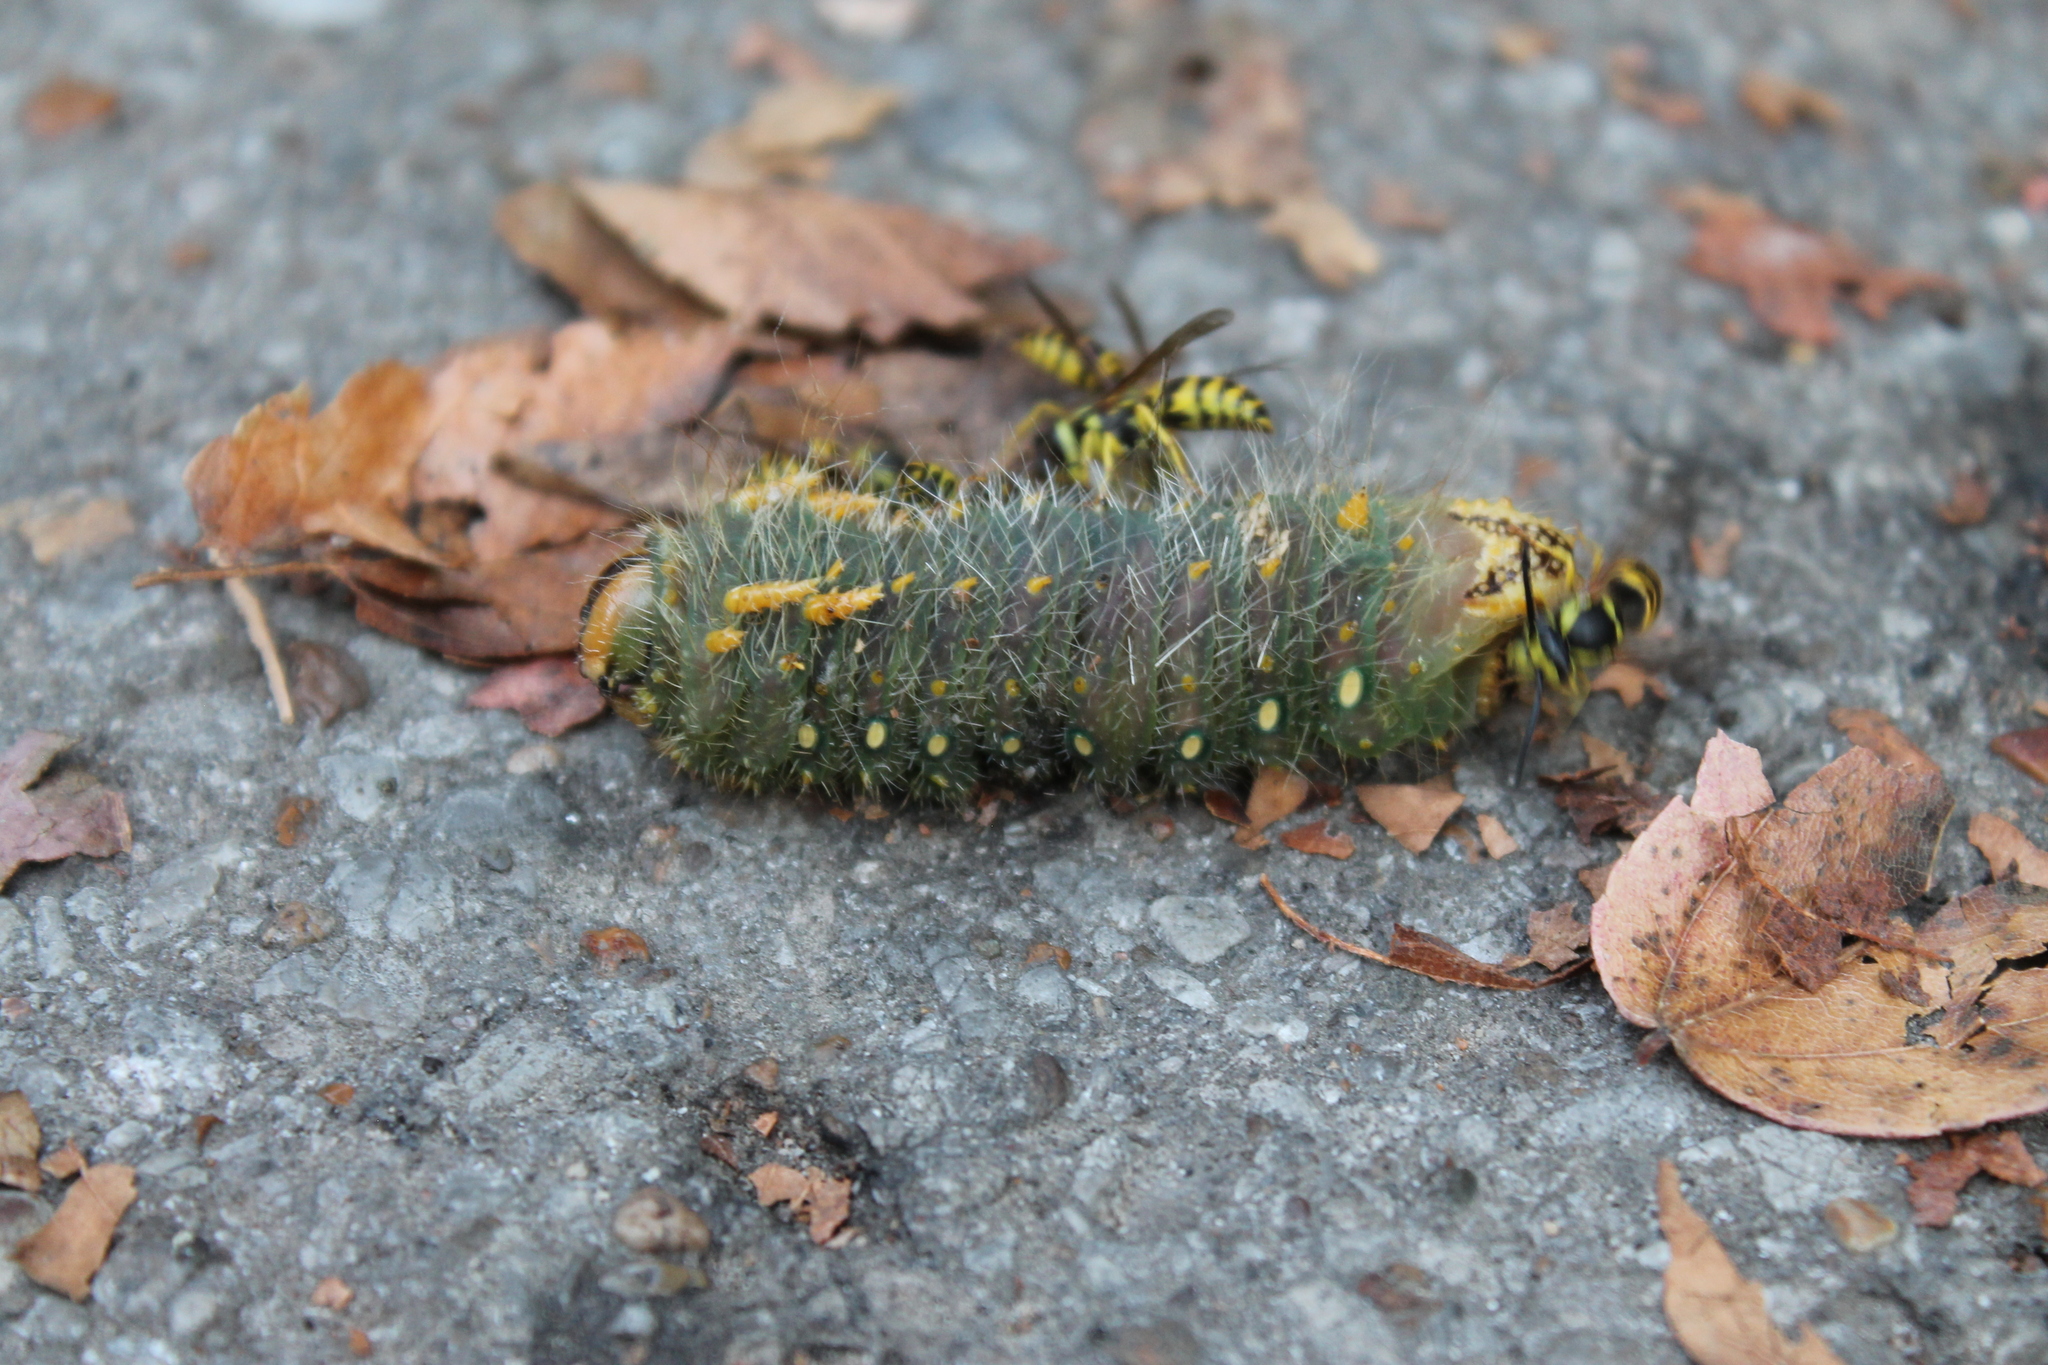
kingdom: Animalia
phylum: Arthropoda
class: Insecta
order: Lepidoptera
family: Saturniidae
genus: Eacles
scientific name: Eacles imperialis
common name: Imperial moth
